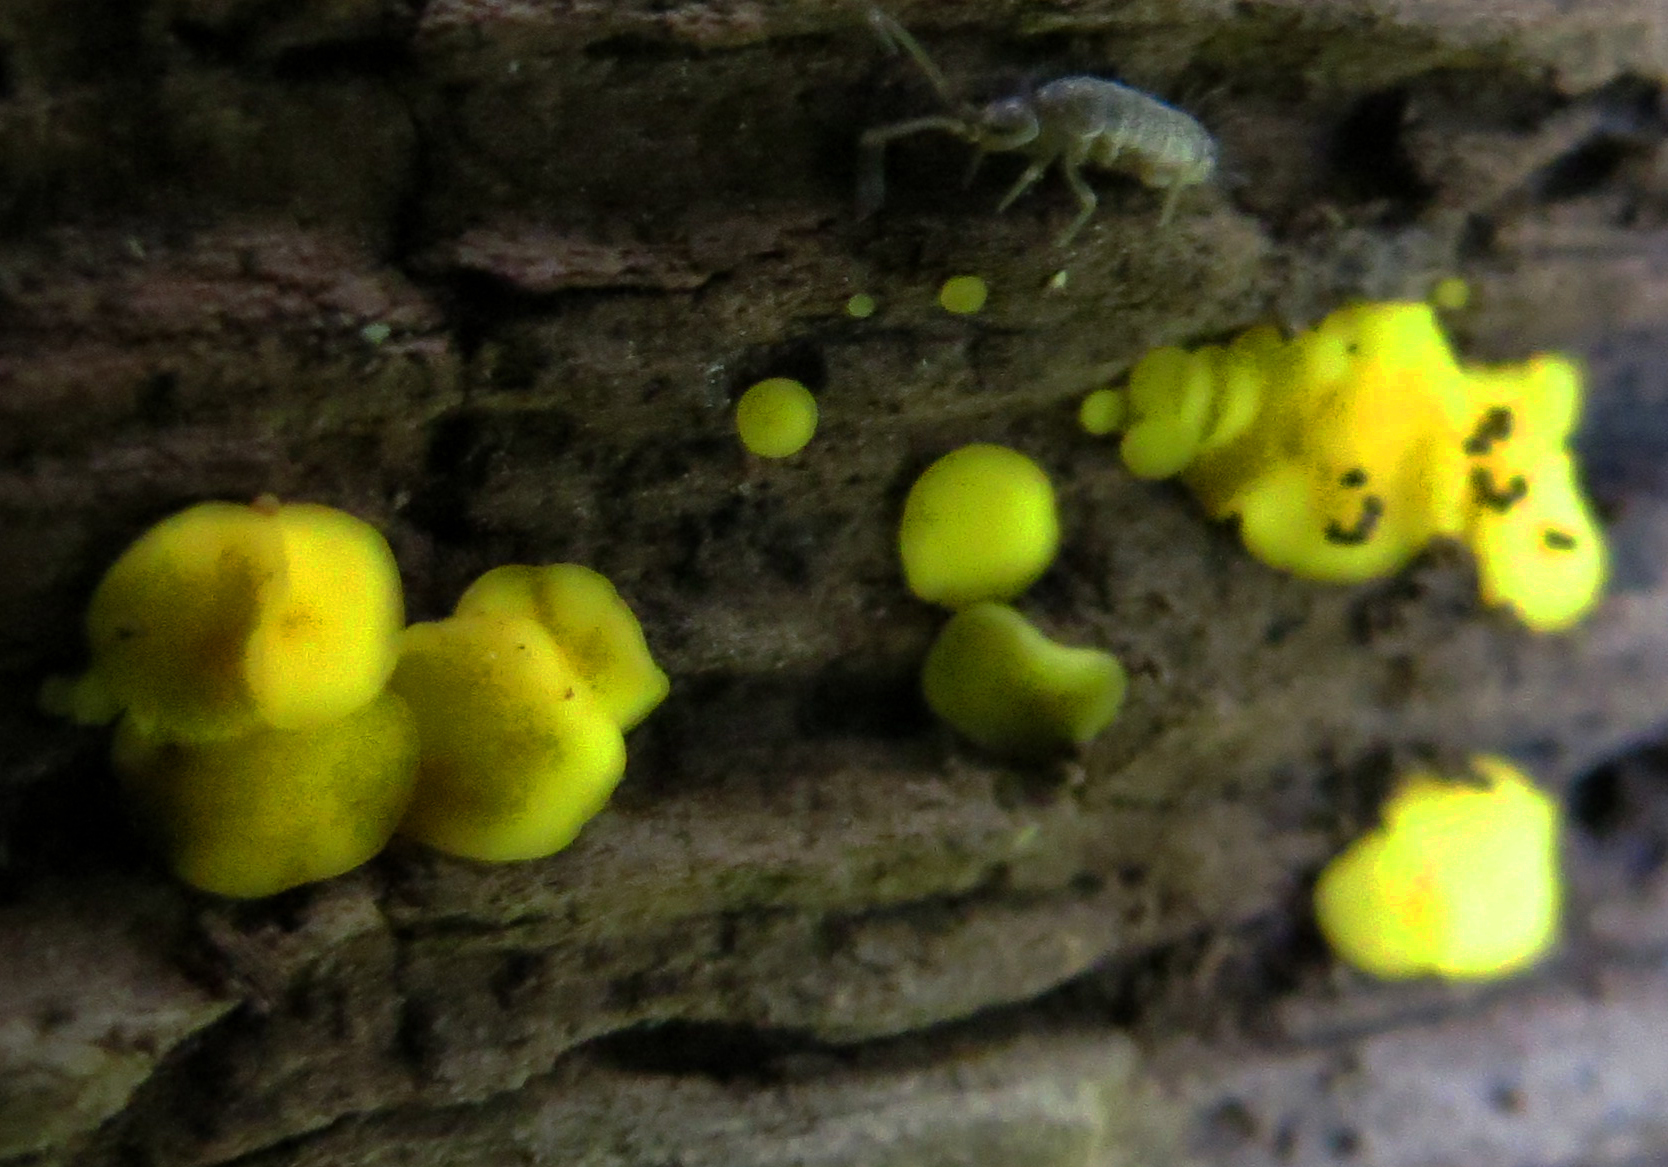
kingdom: Fungi
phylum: Ascomycota
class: Leotiomycetes
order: Helotiales
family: Pezizellaceae
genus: Calycina
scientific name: Calycina citrina
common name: Yellow fairy cups
